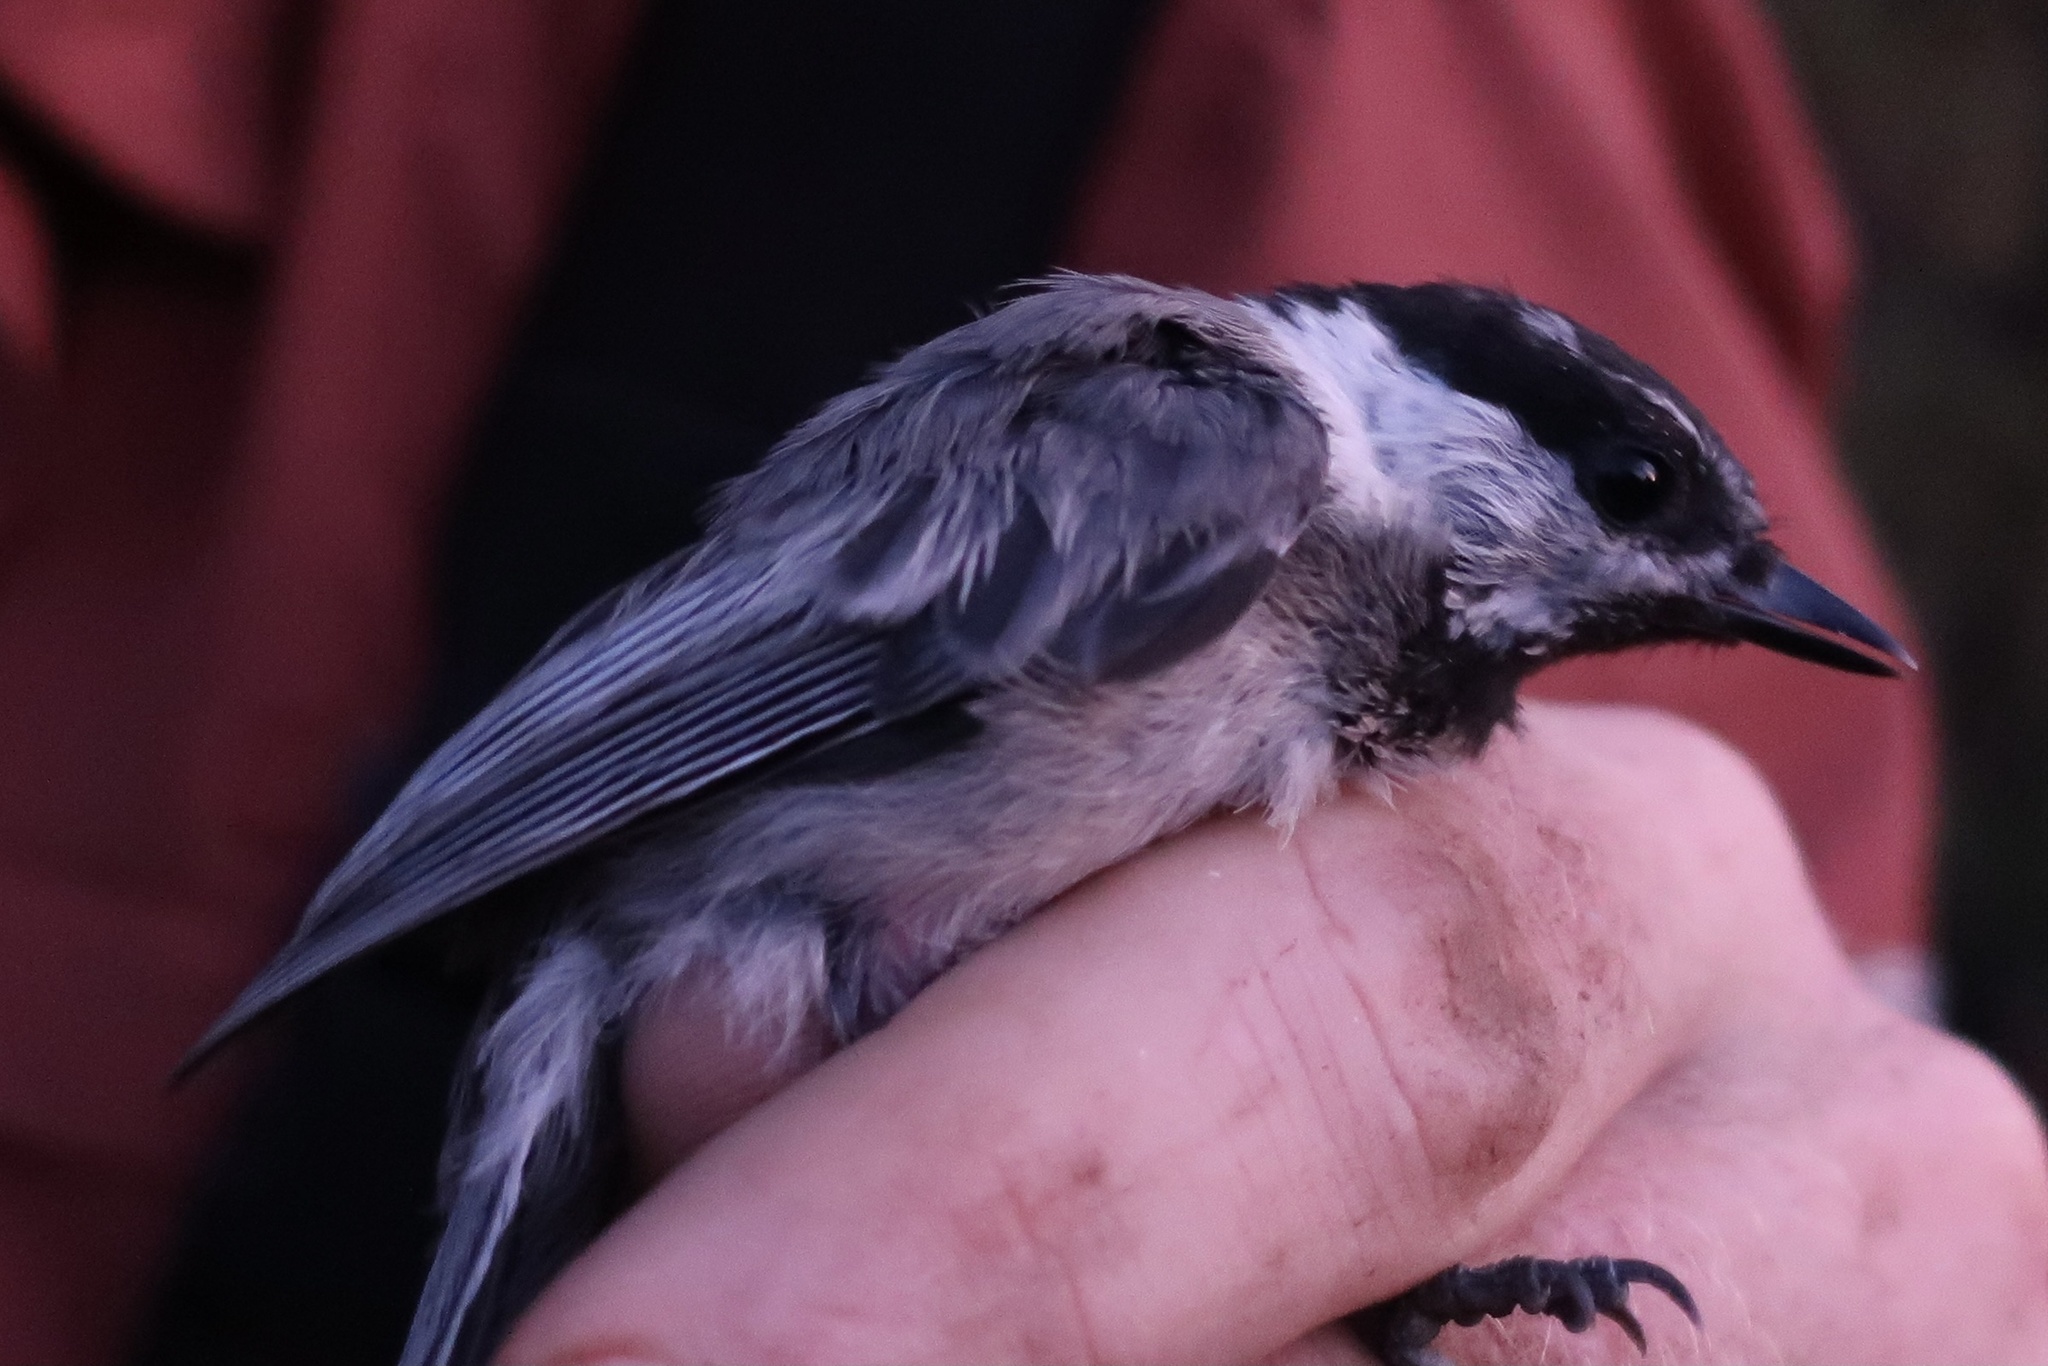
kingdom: Animalia
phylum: Chordata
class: Aves
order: Passeriformes
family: Paridae
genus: Poecile
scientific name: Poecile gambeli
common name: Mountain chickadee
